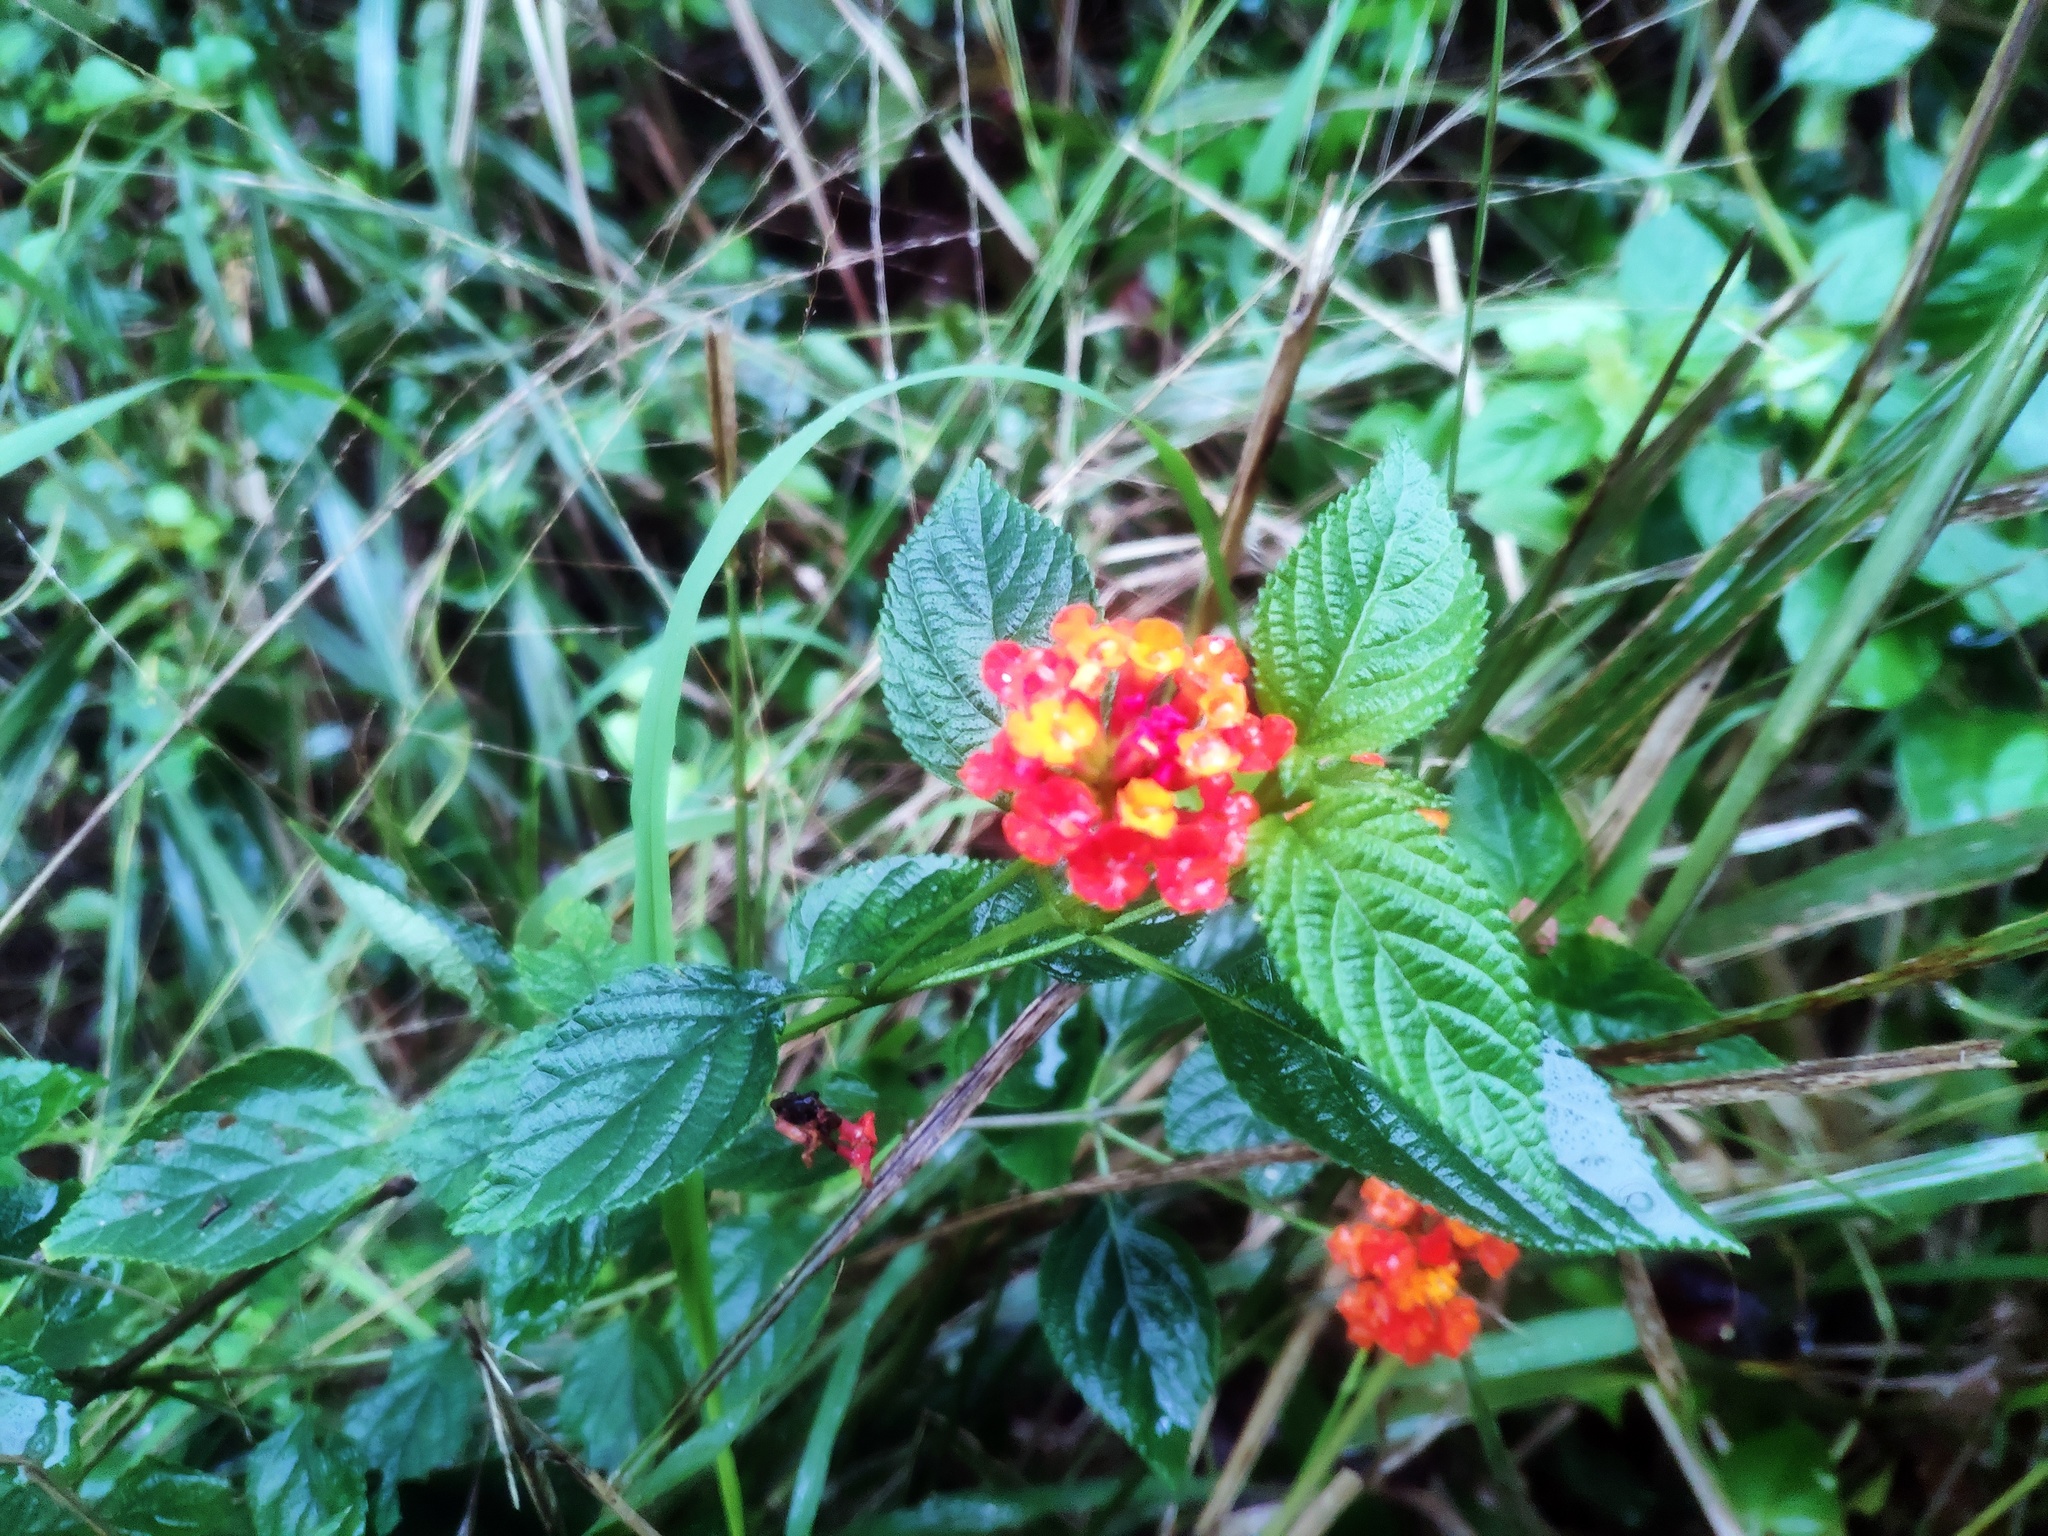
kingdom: Plantae
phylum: Tracheophyta
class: Magnoliopsida
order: Lamiales
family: Verbenaceae
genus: Lantana
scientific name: Lantana camara
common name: Lantana
